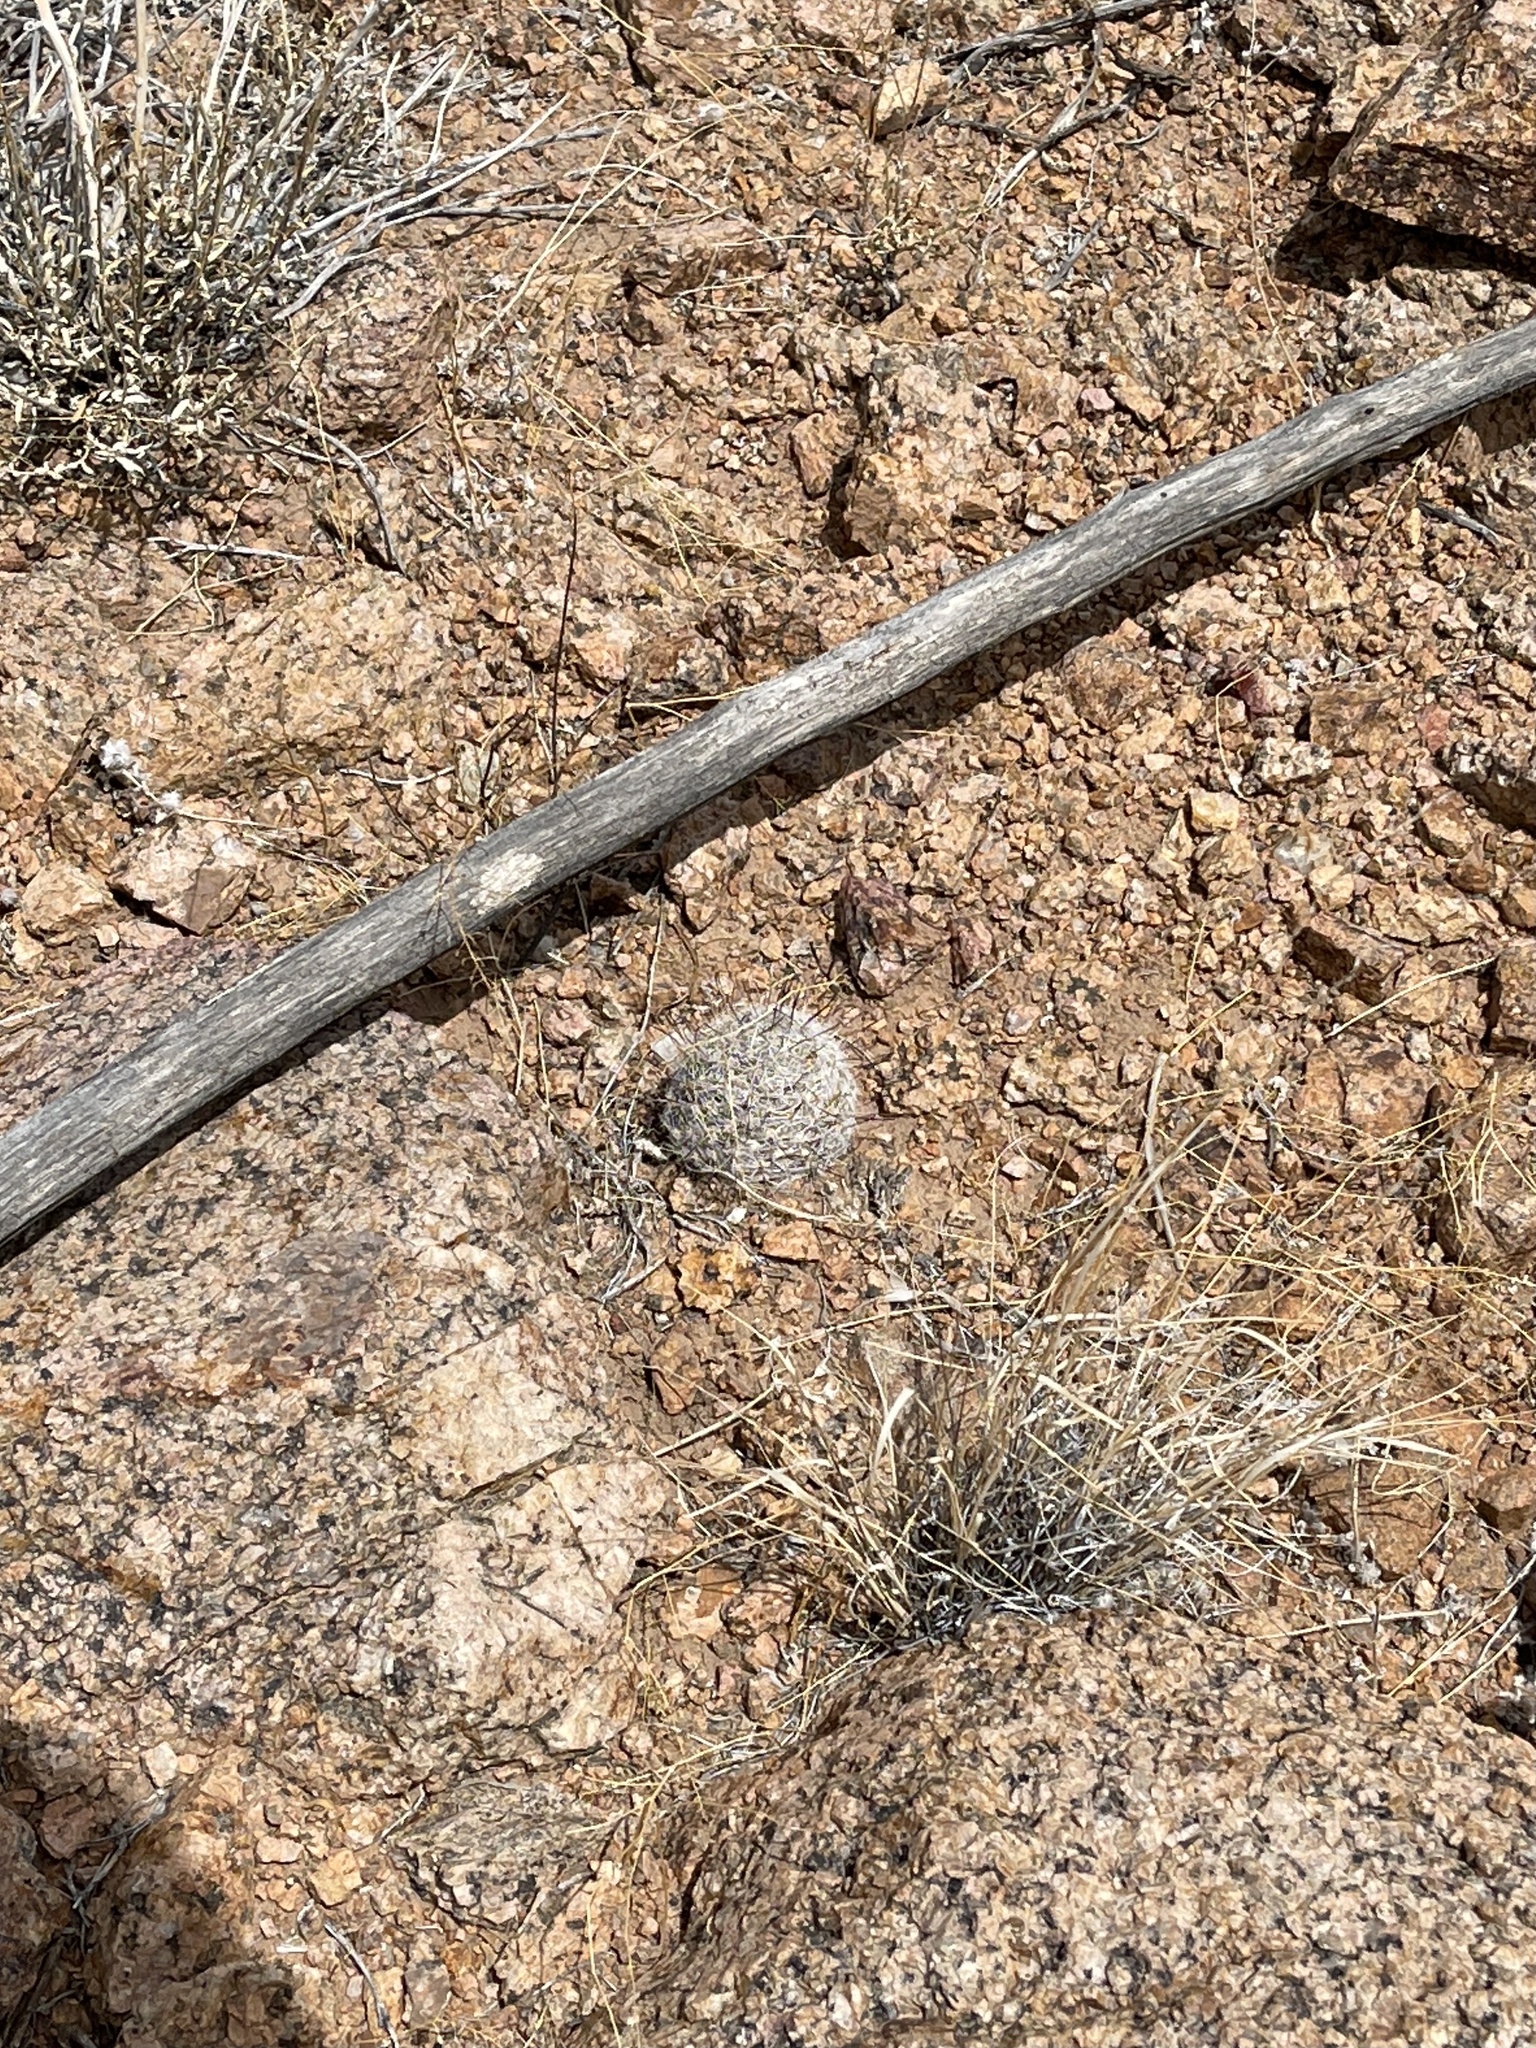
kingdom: Plantae
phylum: Tracheophyta
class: Magnoliopsida
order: Caryophyllales
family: Cactaceae
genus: Cochemiea
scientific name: Cochemiea grahamii
